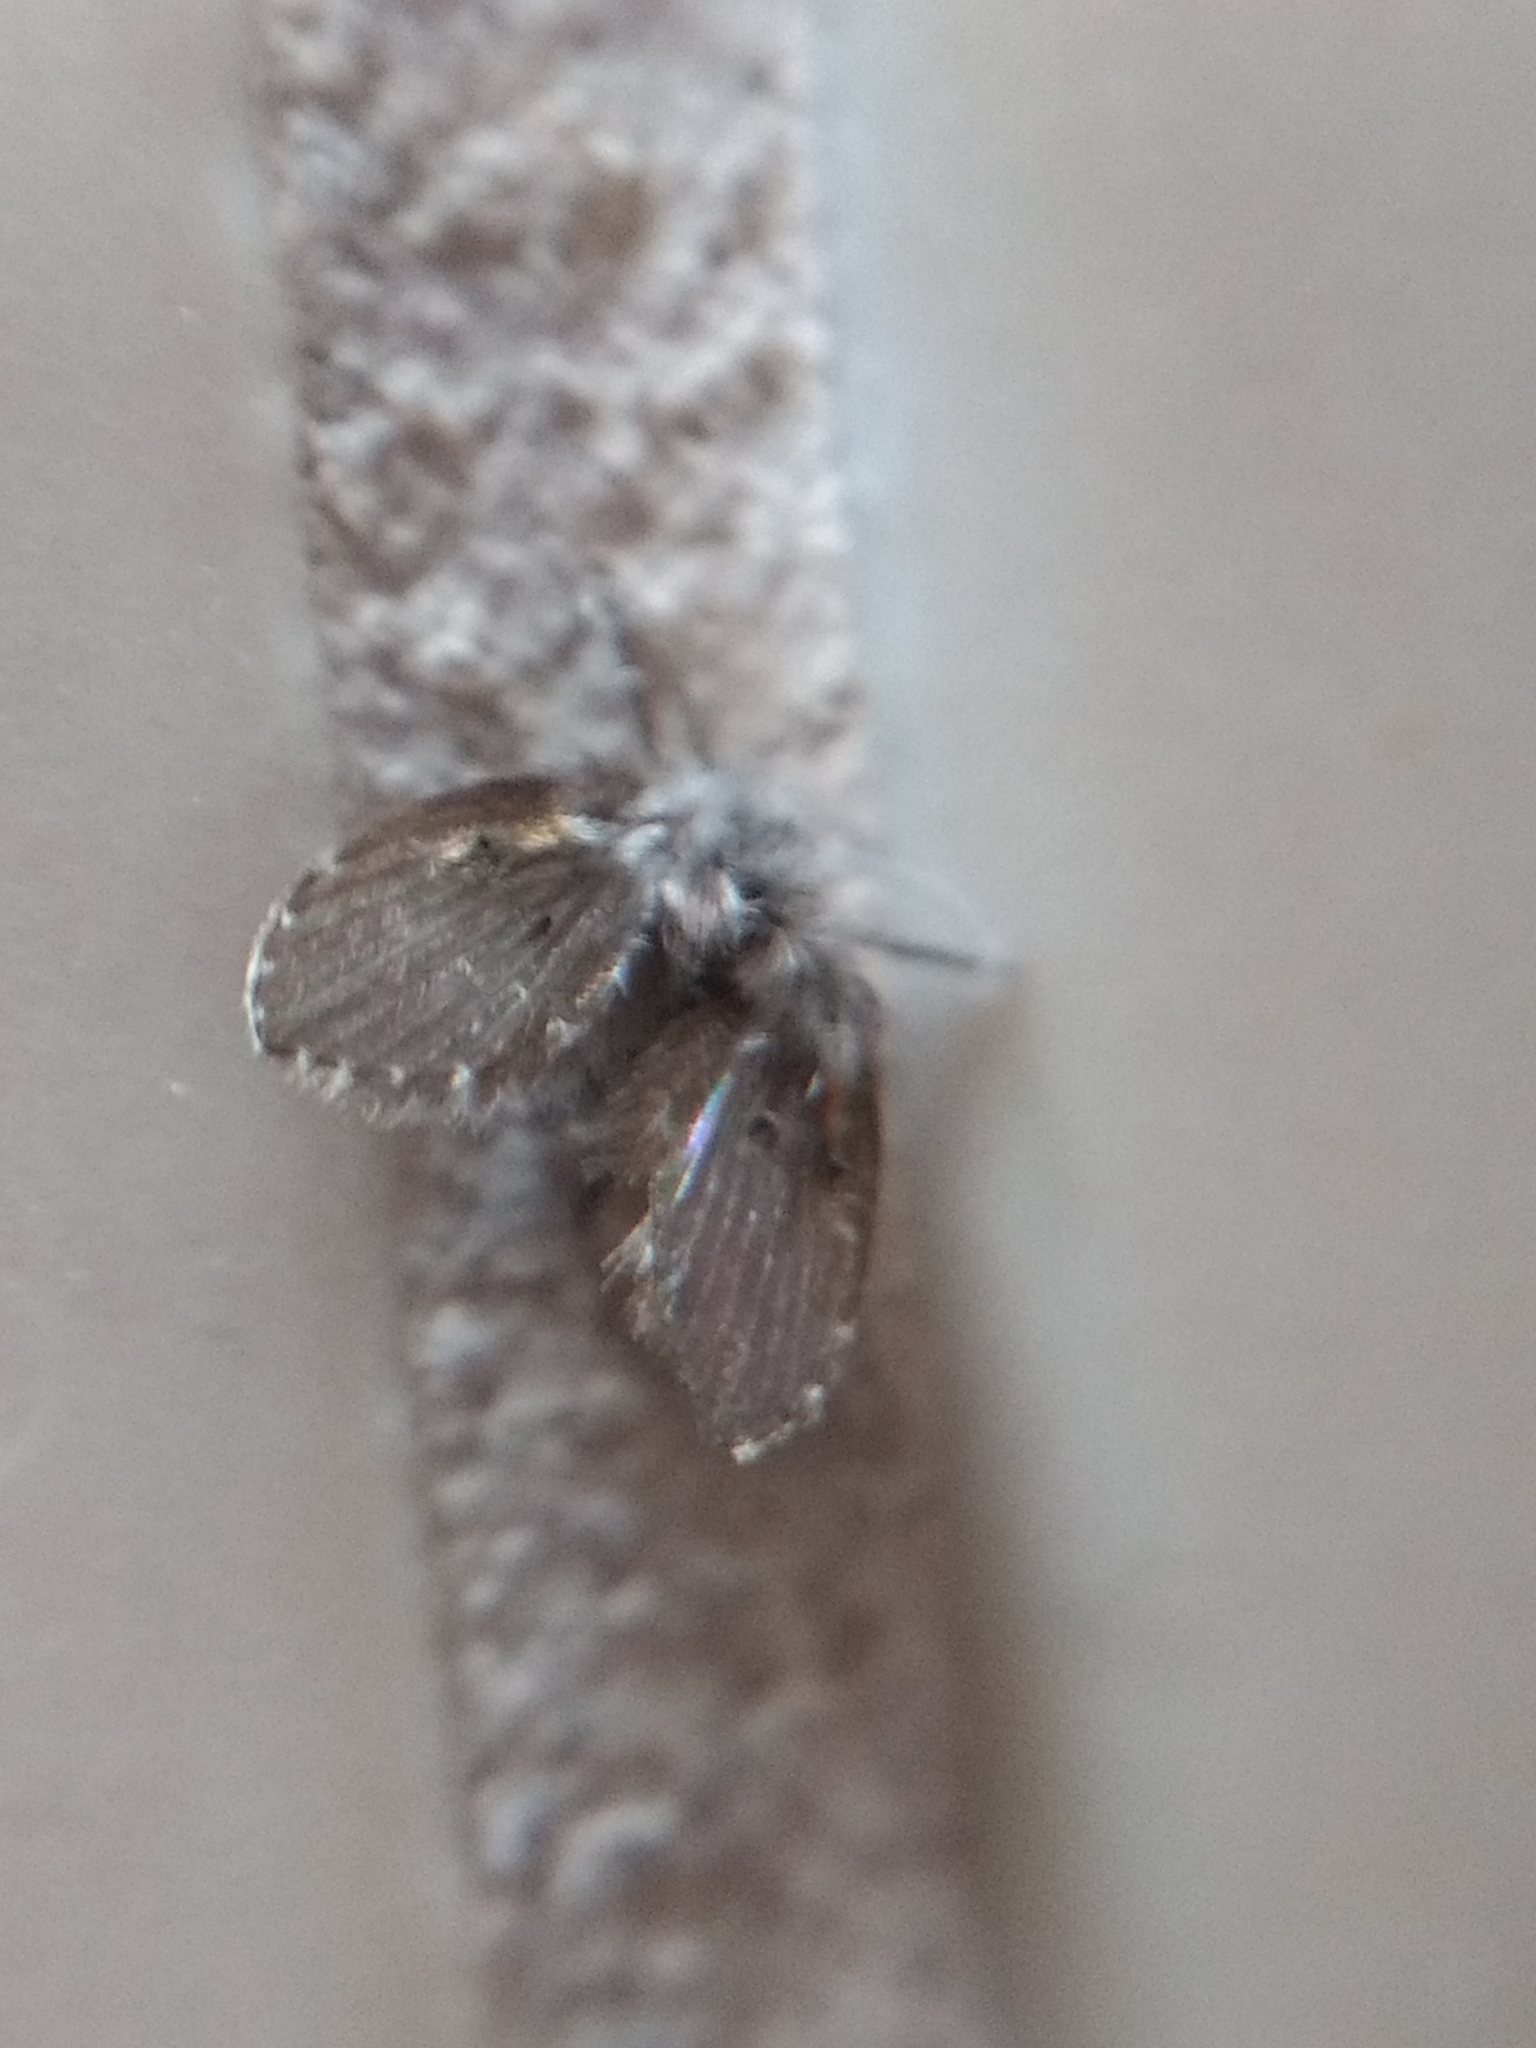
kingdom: Animalia
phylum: Arthropoda
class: Insecta
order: Diptera
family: Psychodidae
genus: Clogmia
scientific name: Clogmia albipunctatus
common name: White-spotted moth fly
